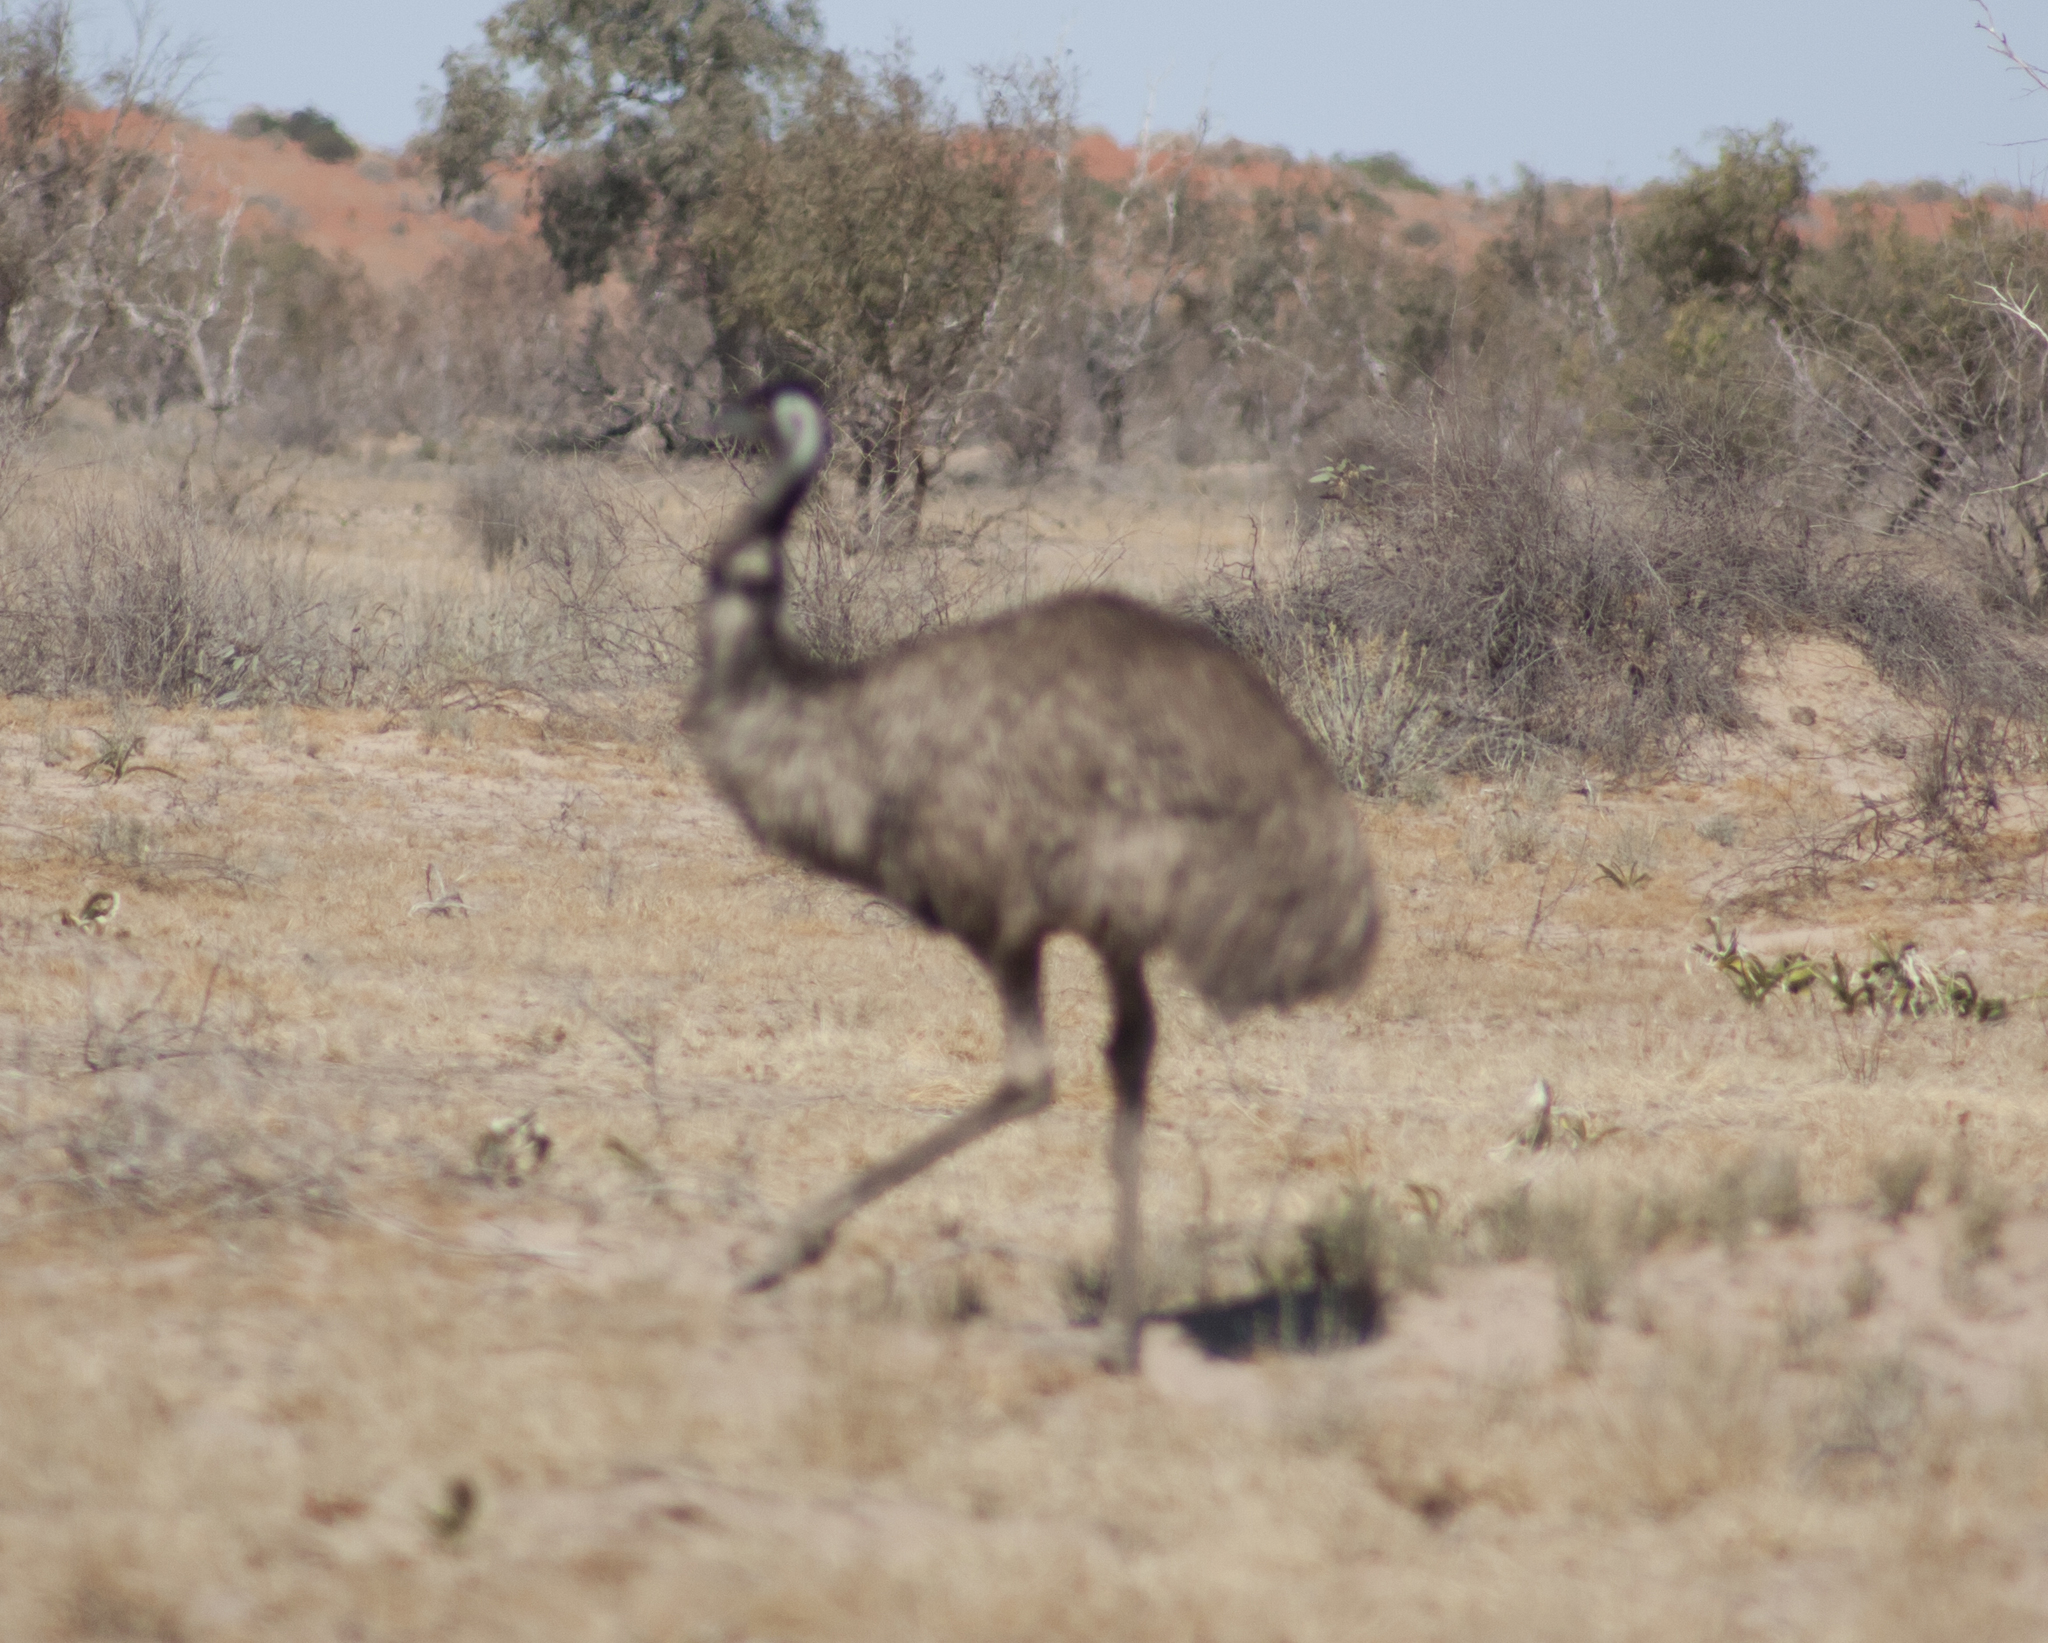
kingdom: Animalia
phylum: Chordata
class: Aves
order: Casuariiformes
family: Dromaiidae
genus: Dromaius
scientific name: Dromaius novaehollandiae
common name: Emu
